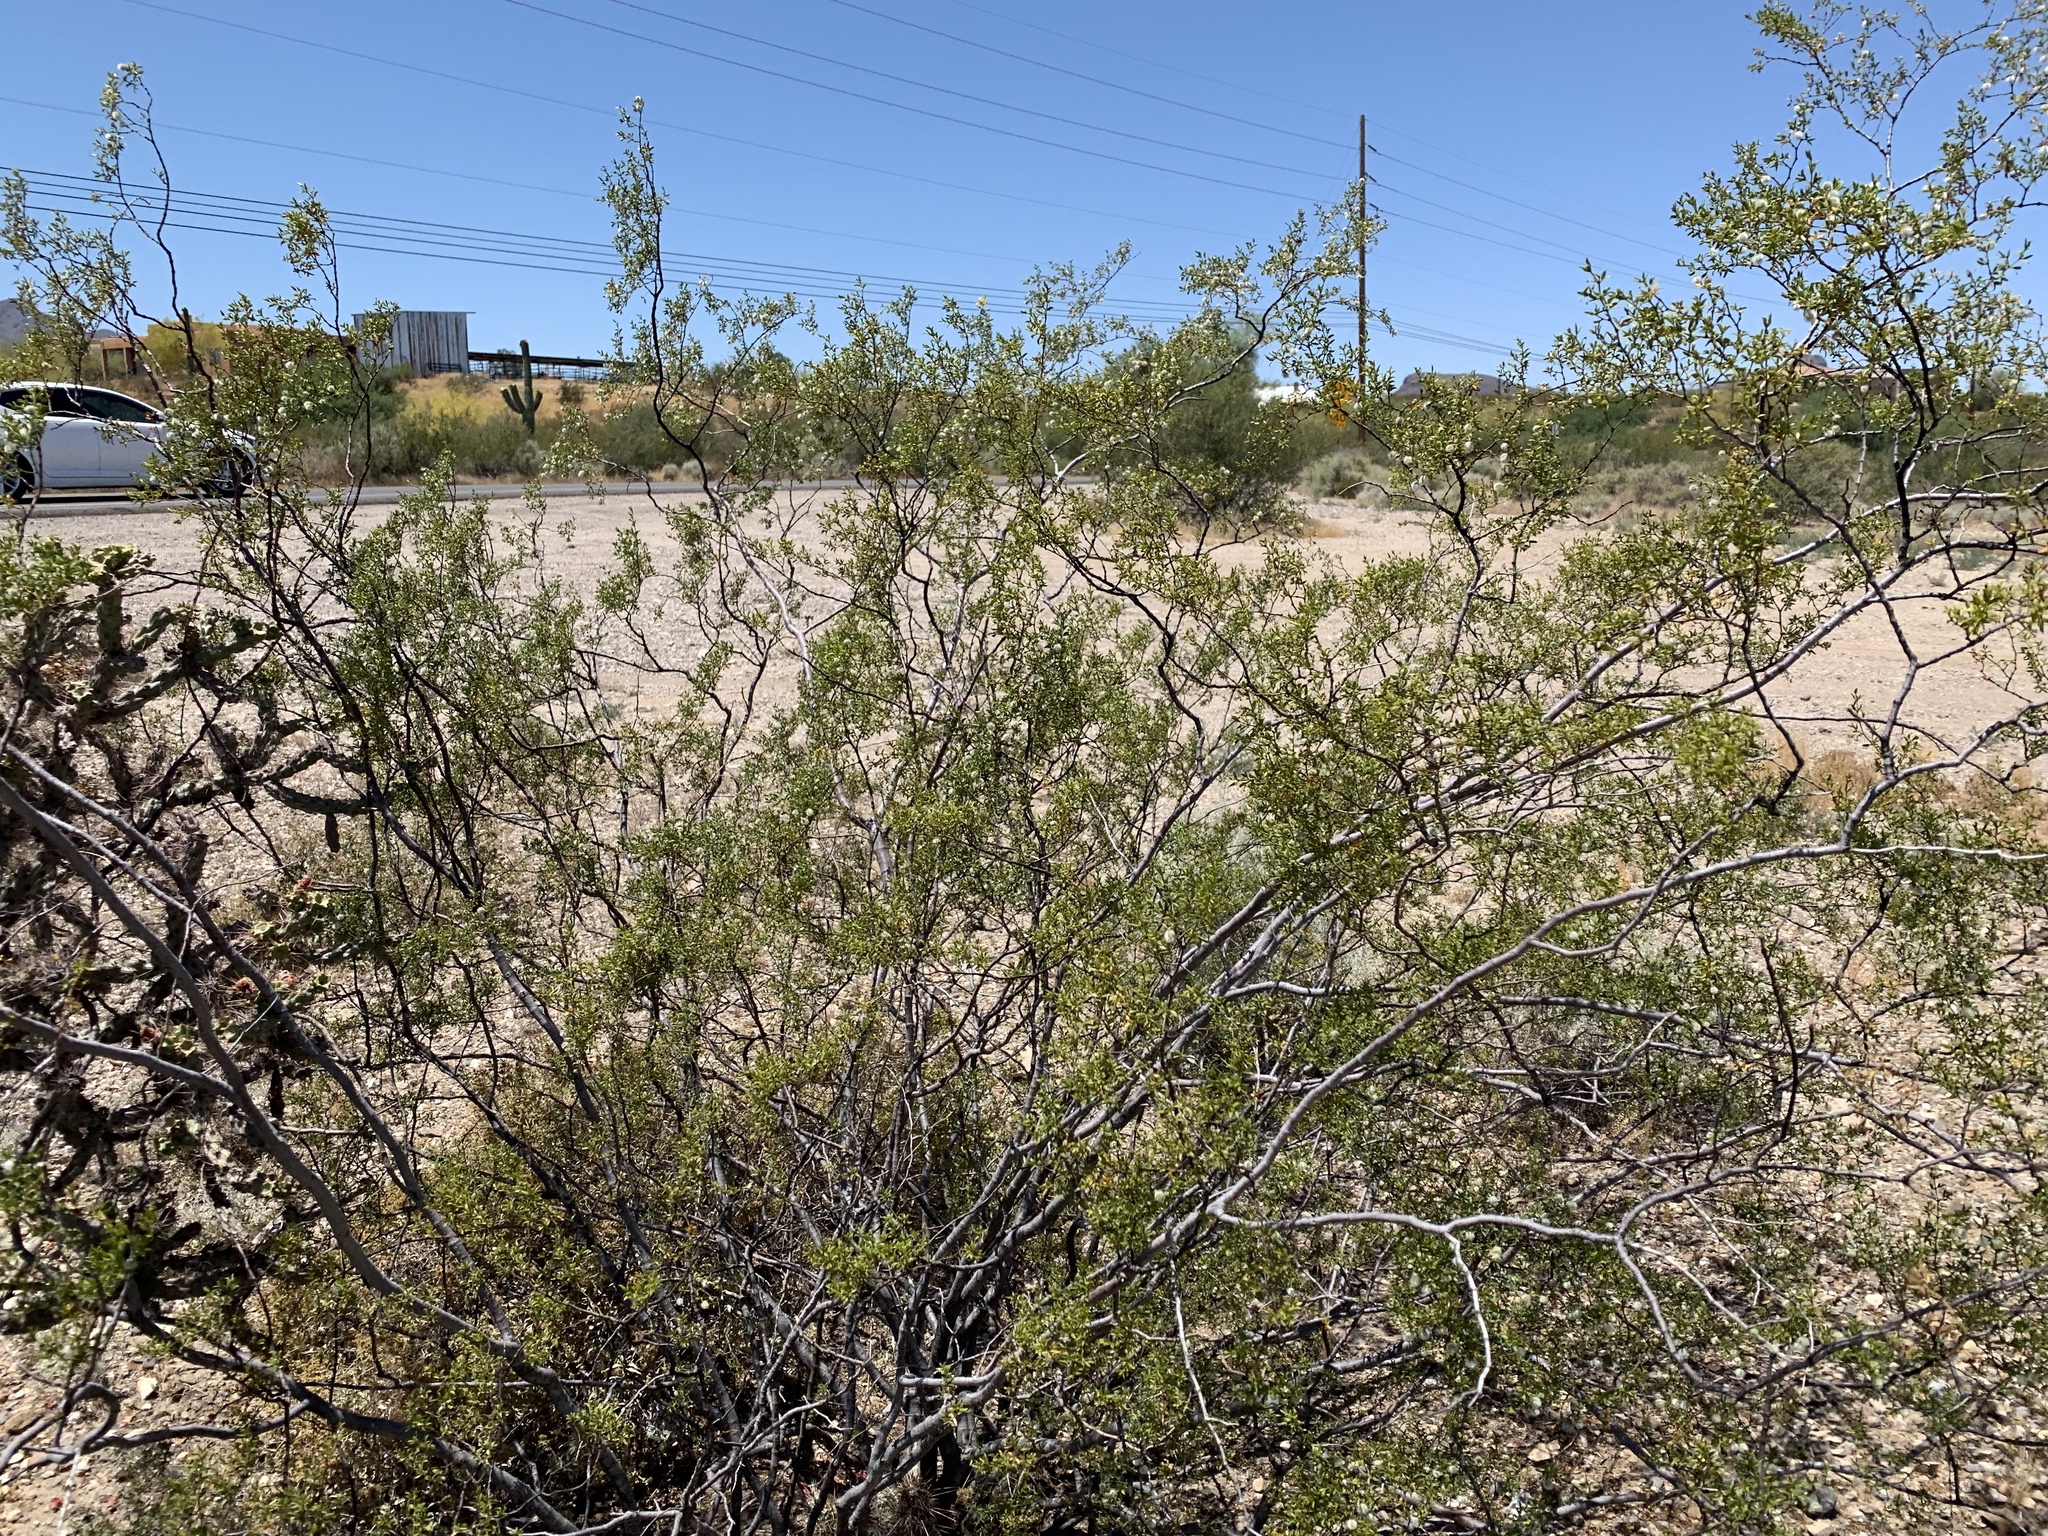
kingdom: Plantae
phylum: Tracheophyta
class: Magnoliopsida
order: Zygophyllales
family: Zygophyllaceae
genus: Larrea
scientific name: Larrea tridentata
